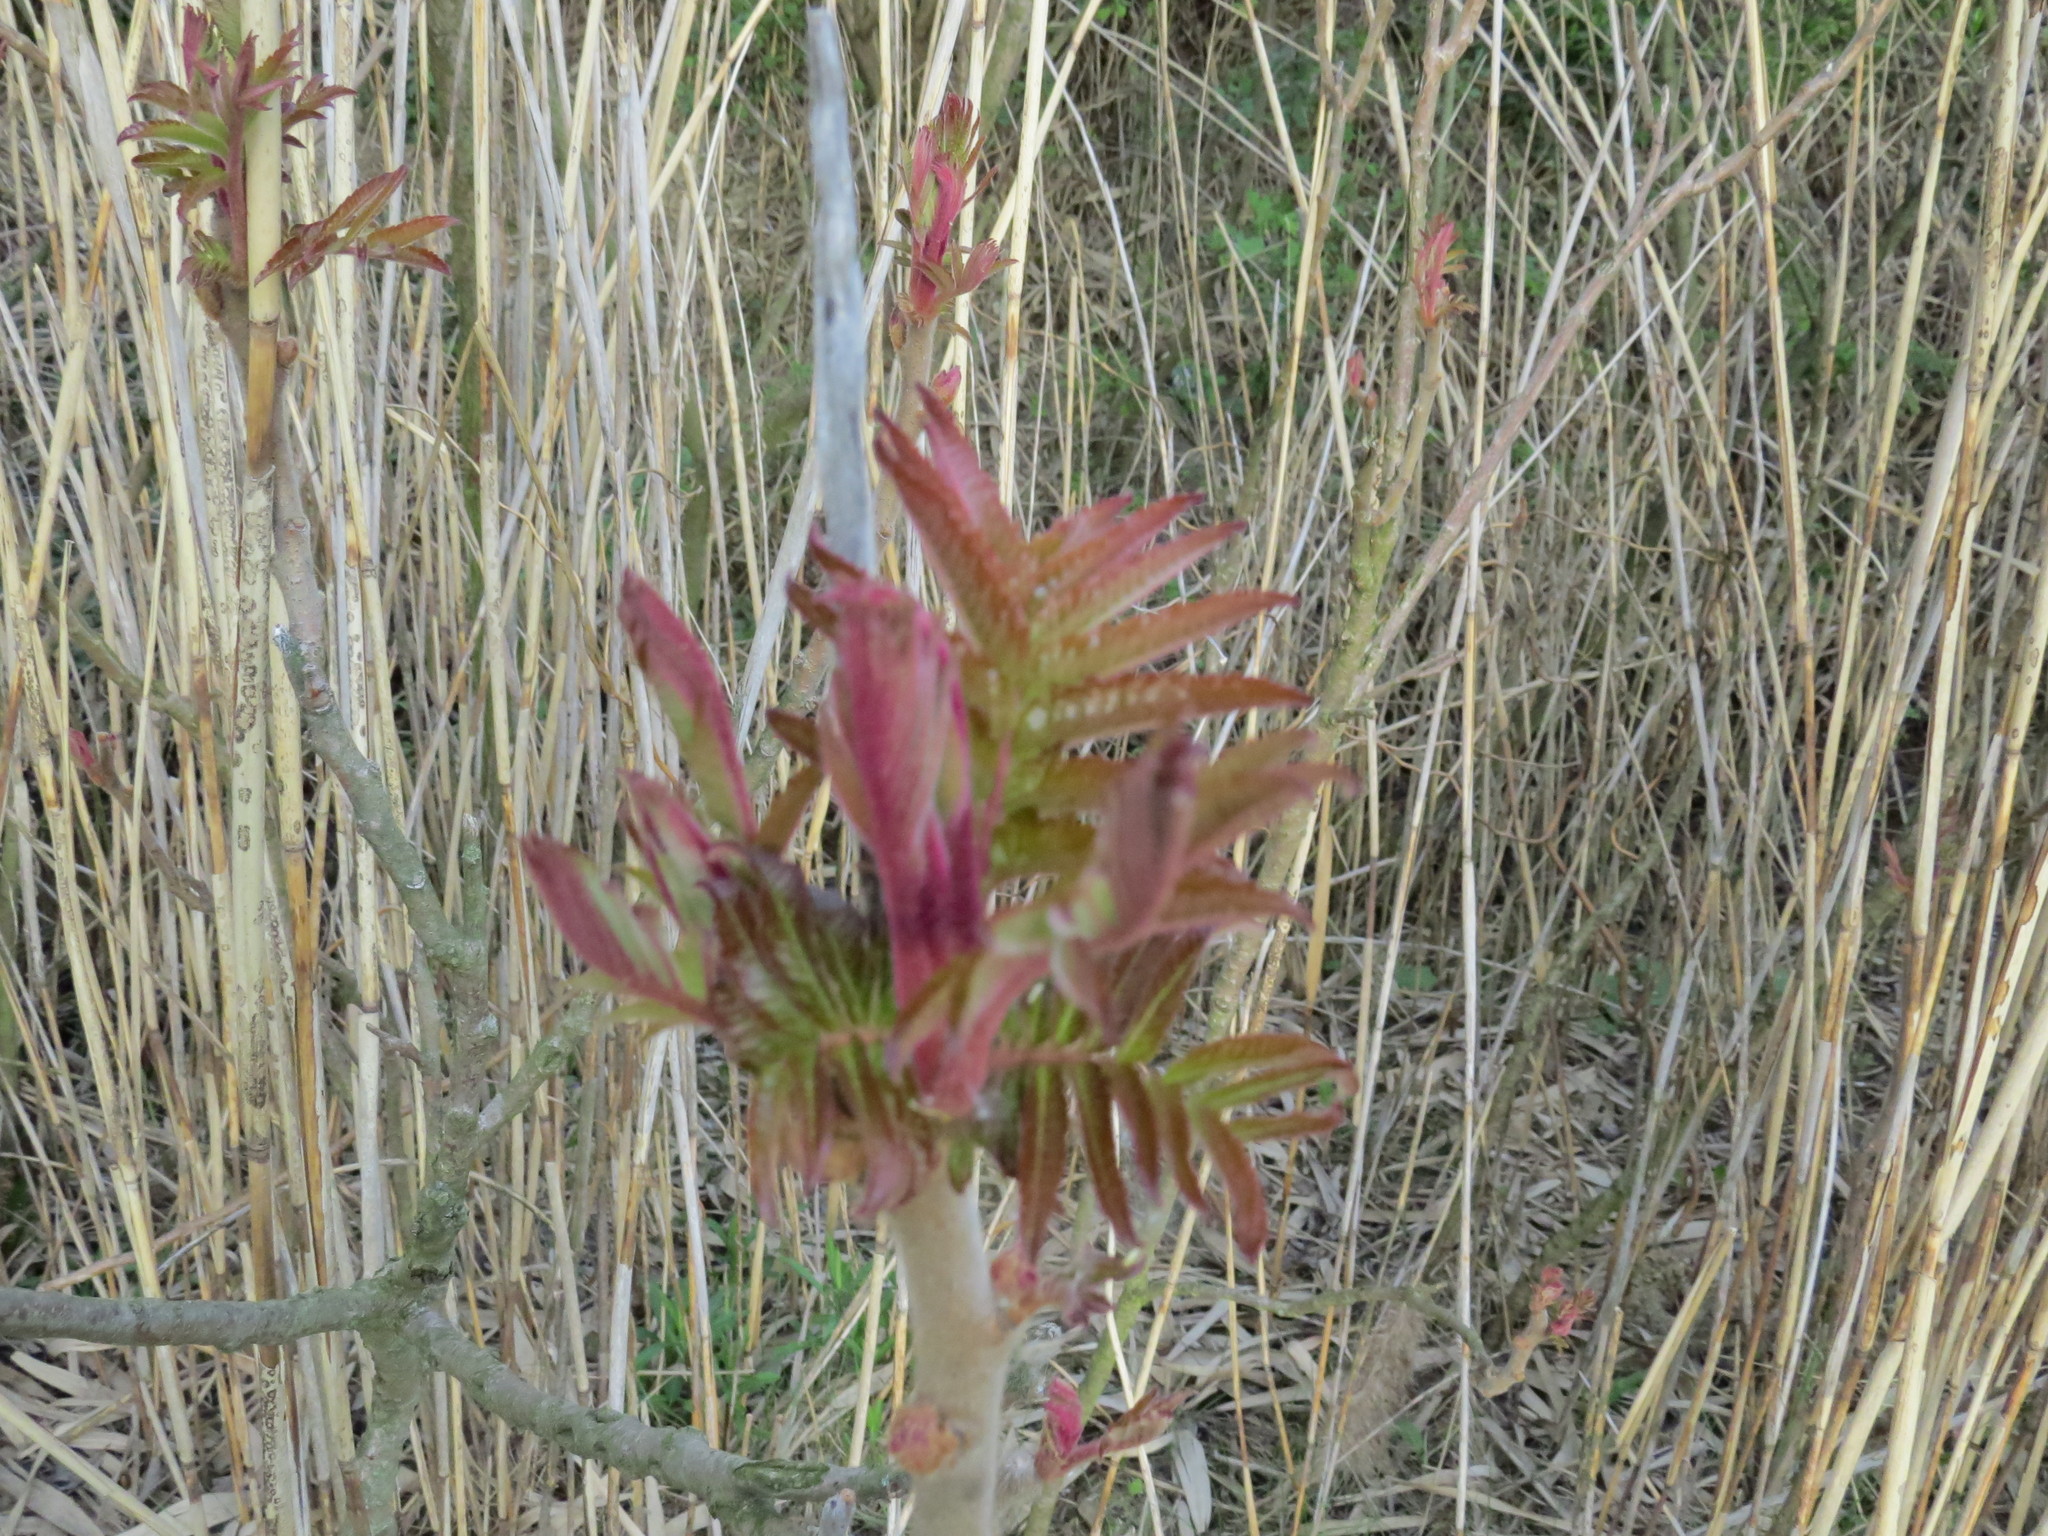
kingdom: Plantae
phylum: Tracheophyta
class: Magnoliopsida
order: Sapindales
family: Anacardiaceae
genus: Rhus
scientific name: Rhus typhina
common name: Staghorn sumac
